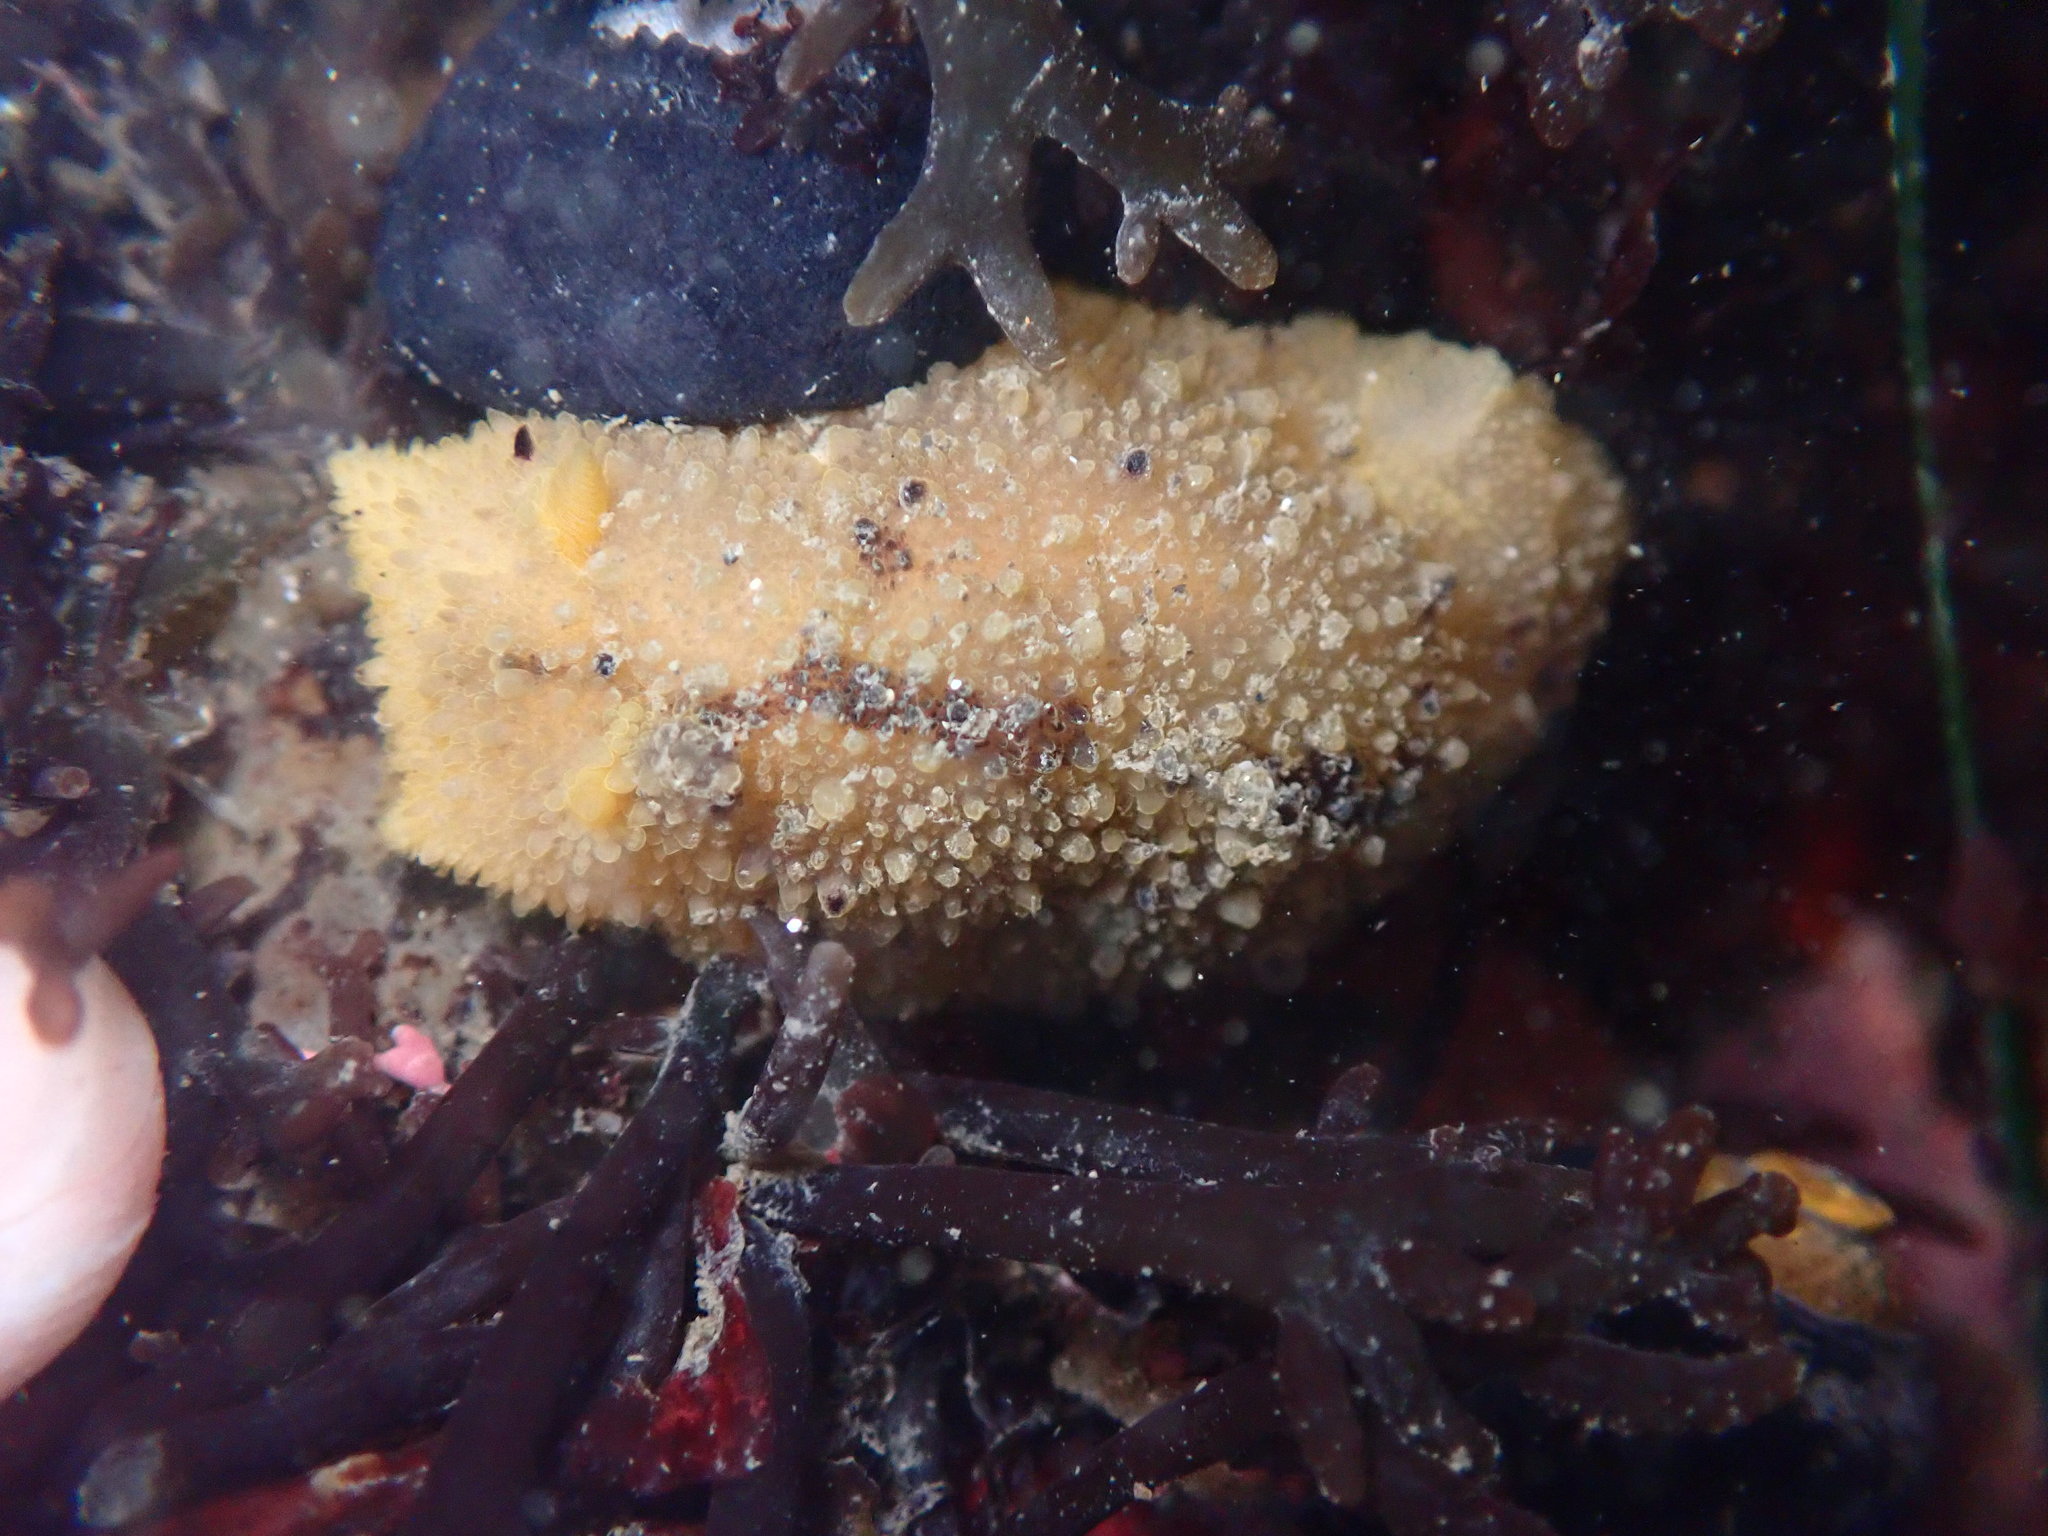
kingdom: Animalia
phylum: Mollusca
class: Gastropoda
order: Nudibranchia
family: Dorididae
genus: Doris
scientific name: Doris montereyensis
